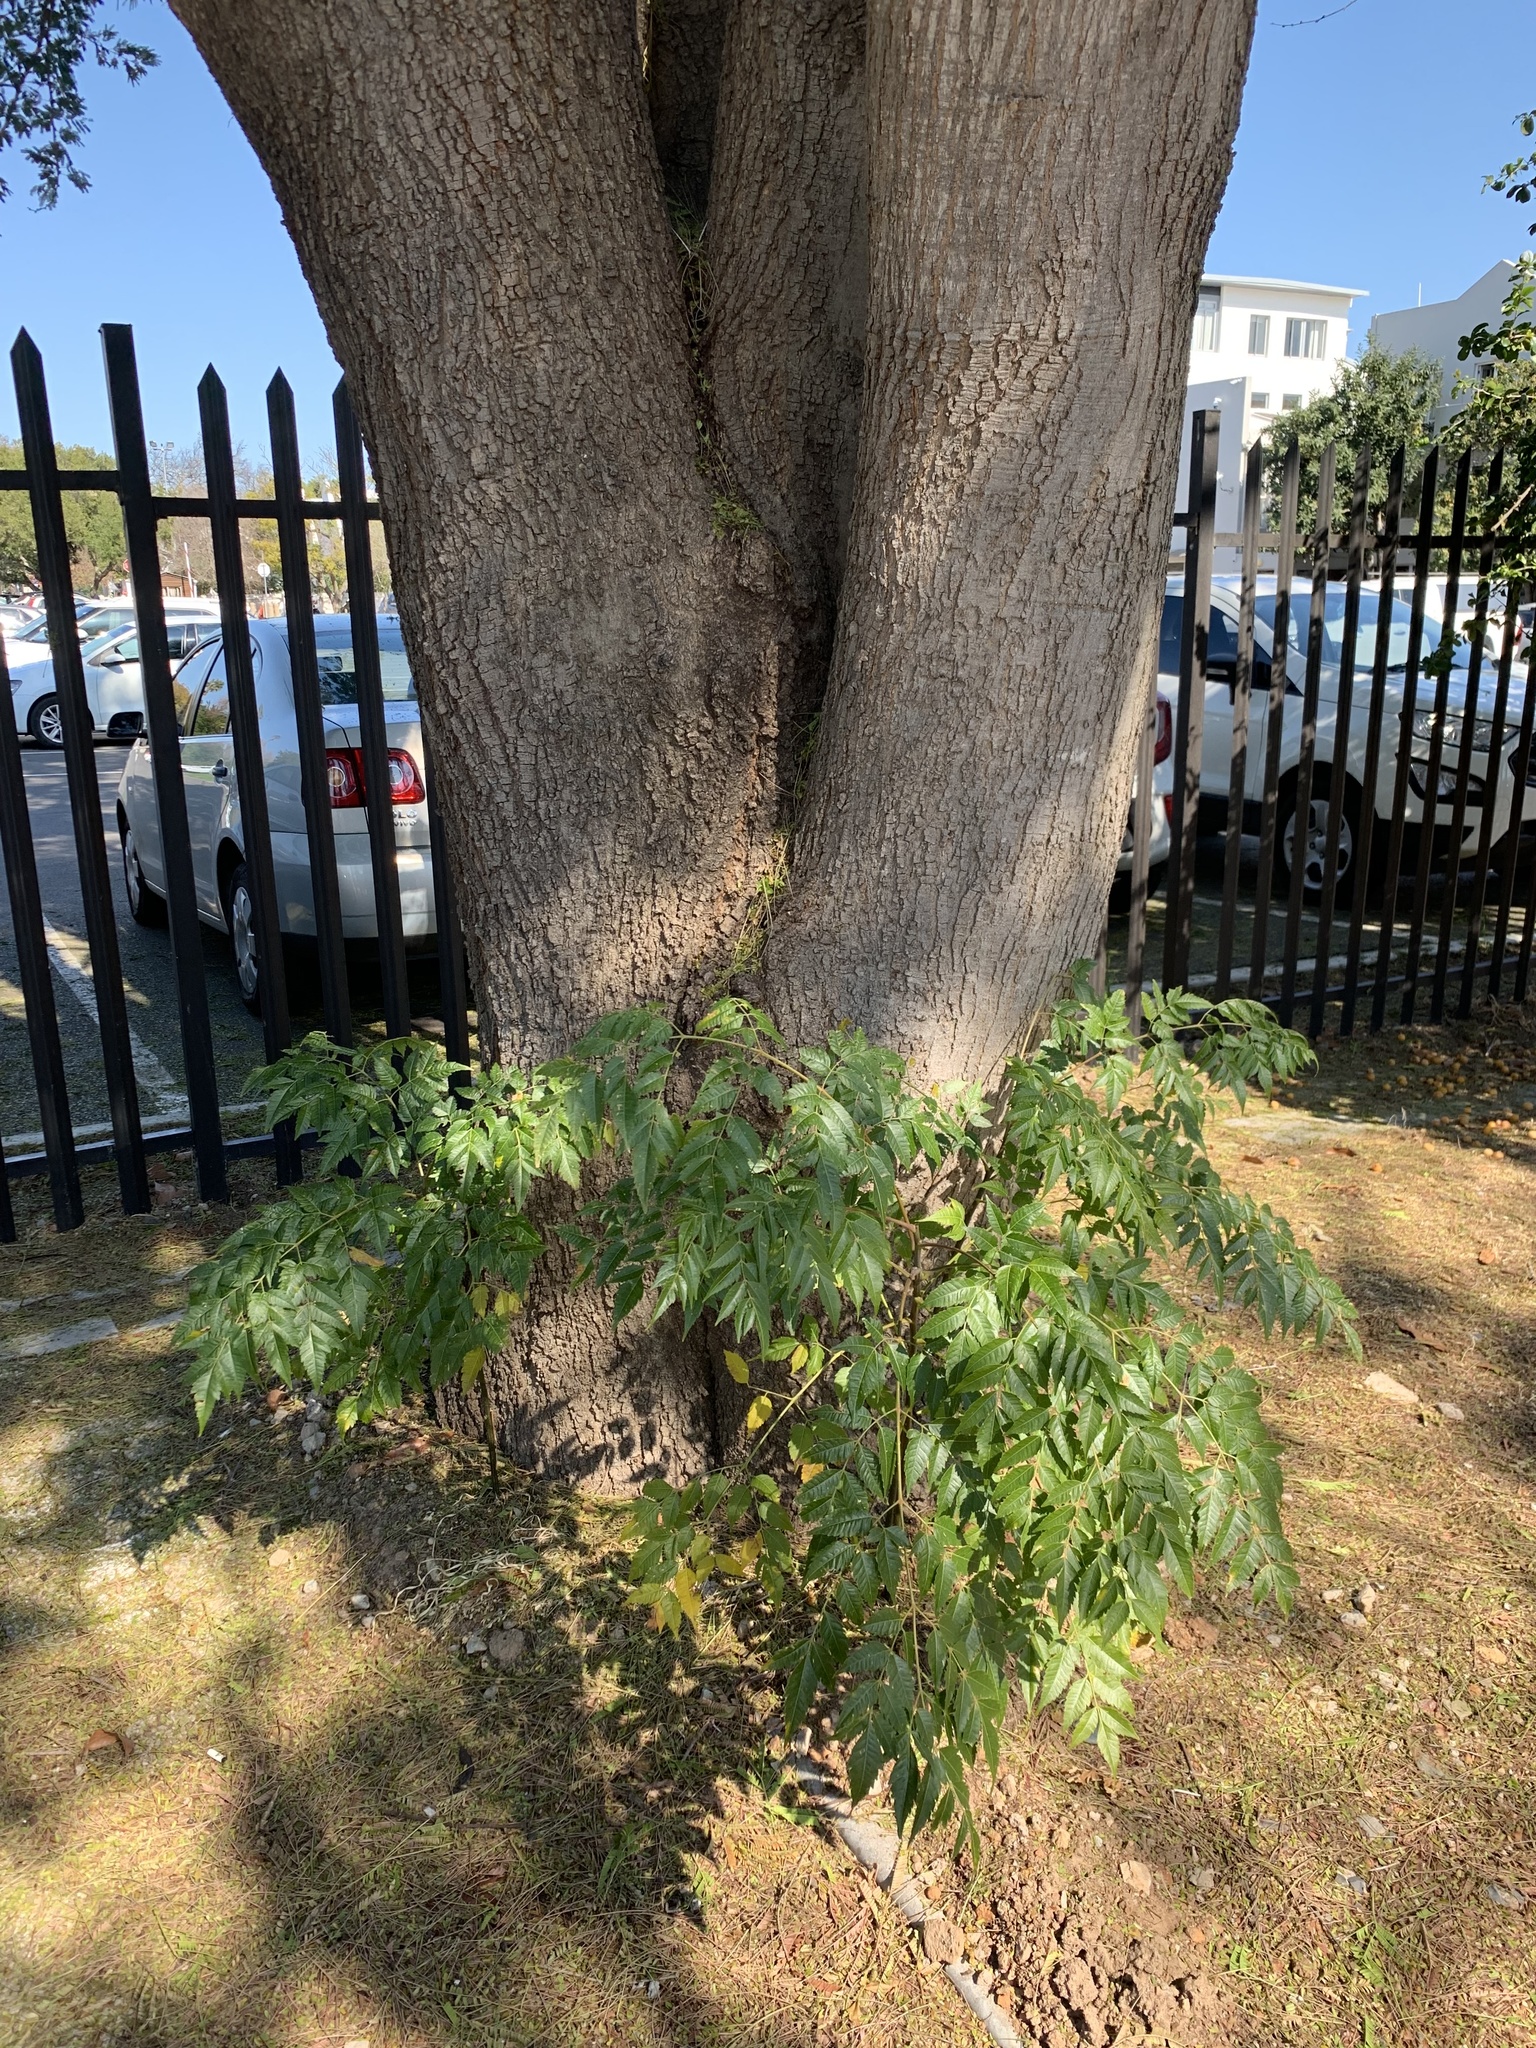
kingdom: Plantae
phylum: Tracheophyta
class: Magnoliopsida
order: Sapindales
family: Meliaceae
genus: Melia
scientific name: Melia azedarach
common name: Chinaberrytree
